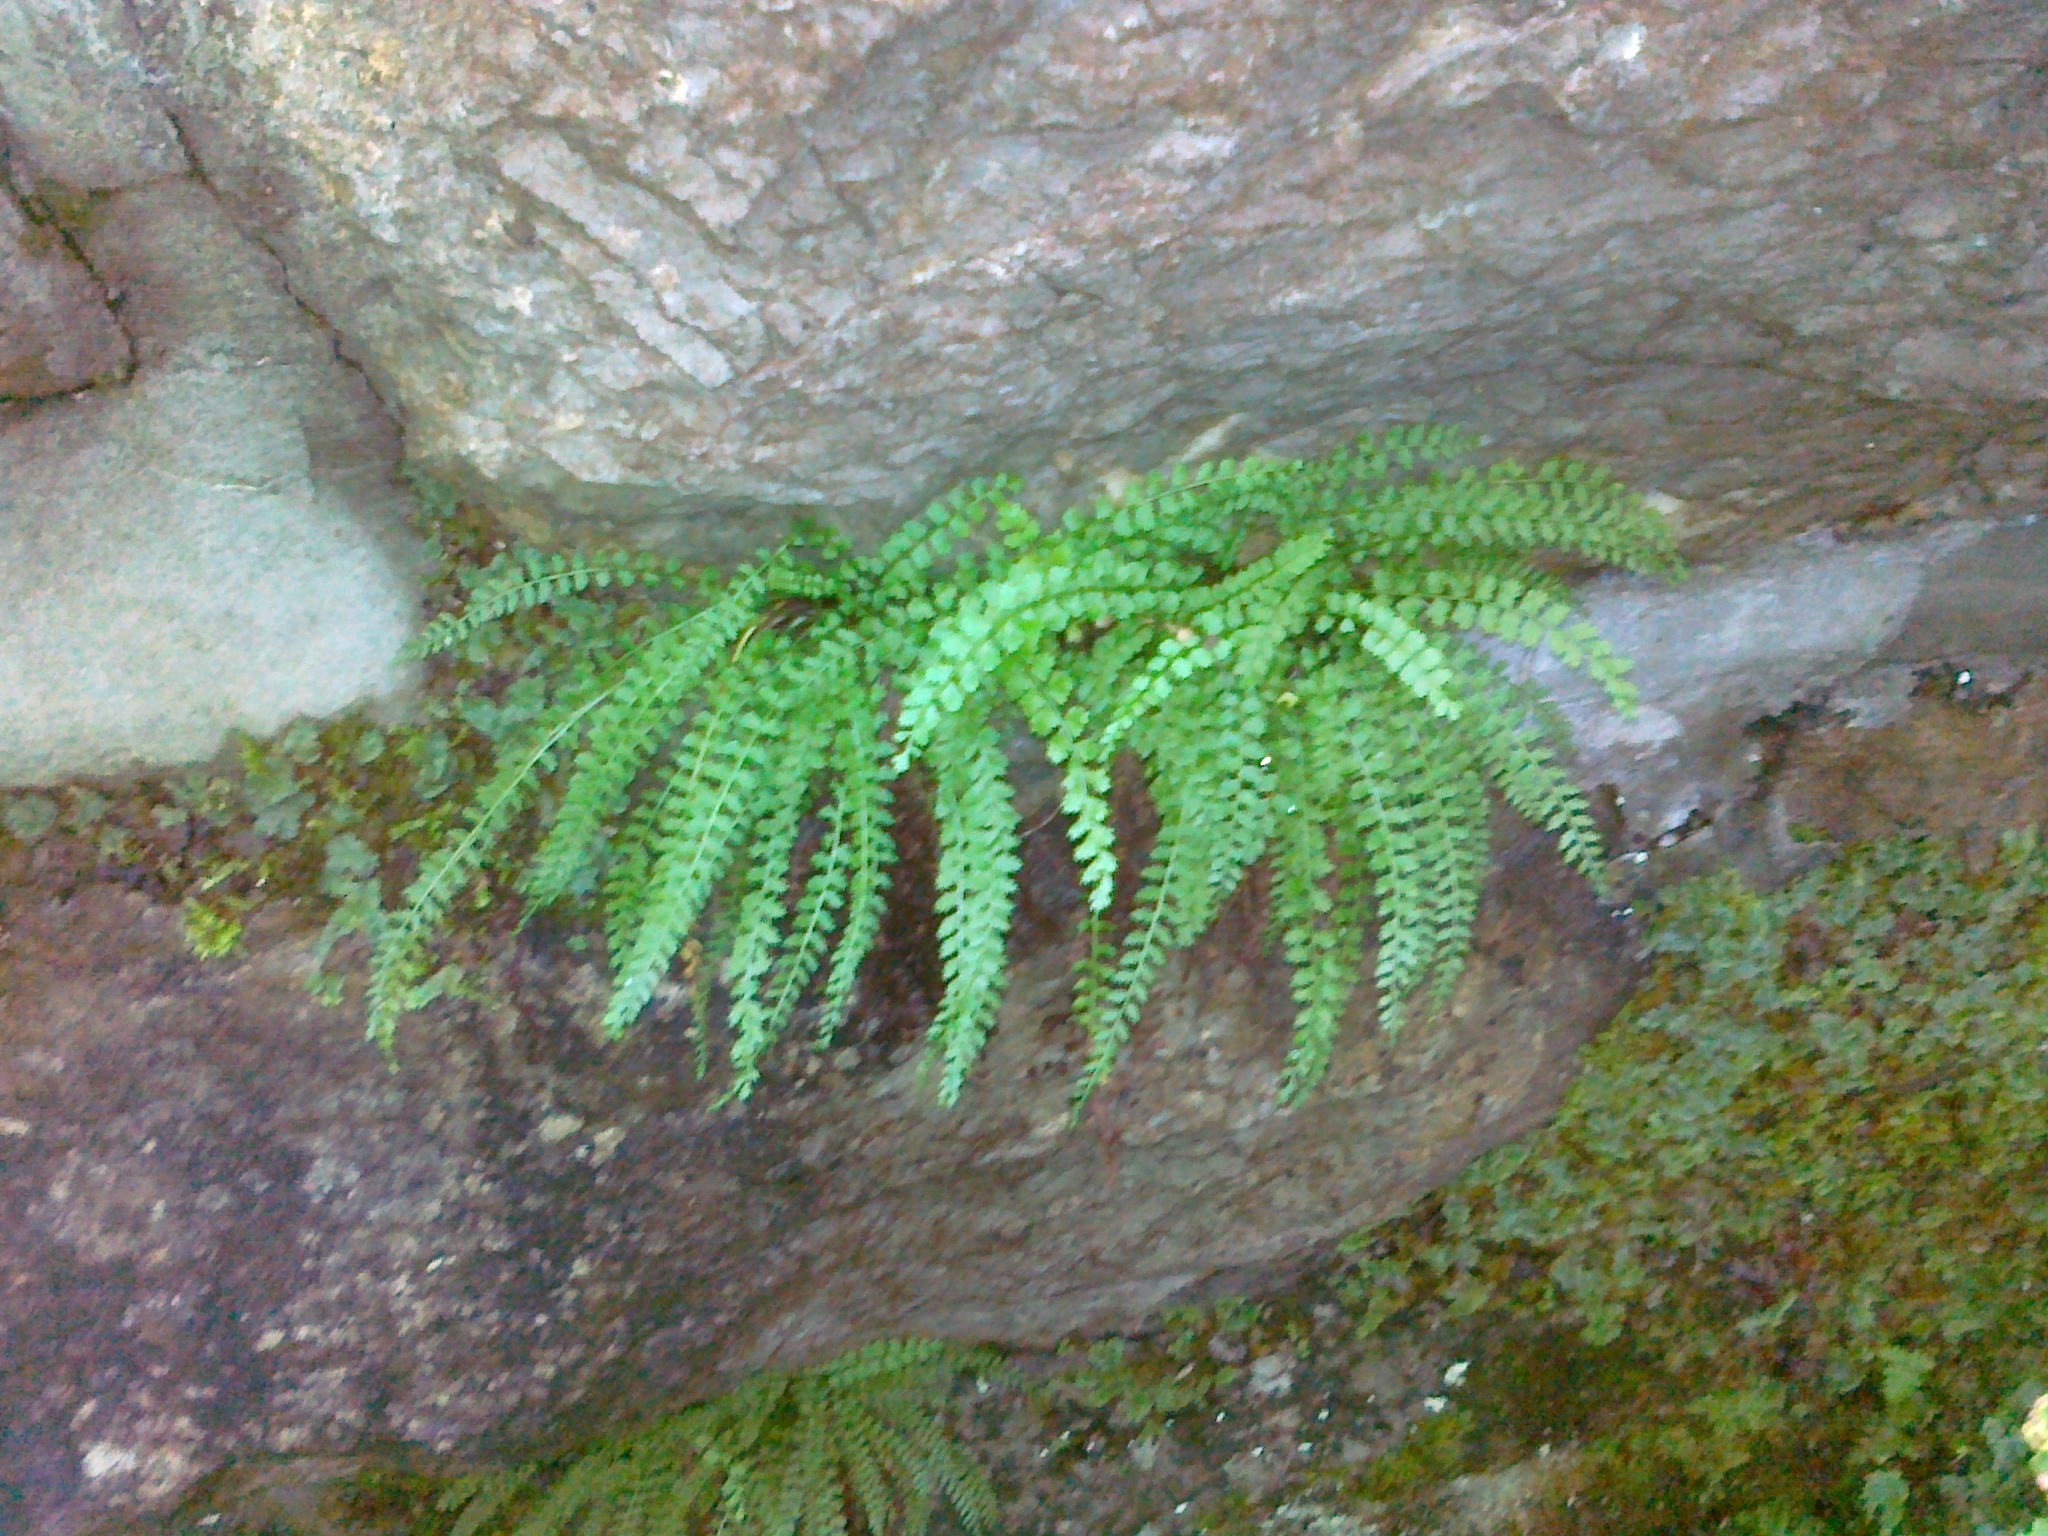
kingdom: Plantae
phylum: Tracheophyta
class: Polypodiopsida
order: Polypodiales
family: Aspleniaceae
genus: Asplenium
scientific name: Asplenium viride
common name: Green spleenwort
